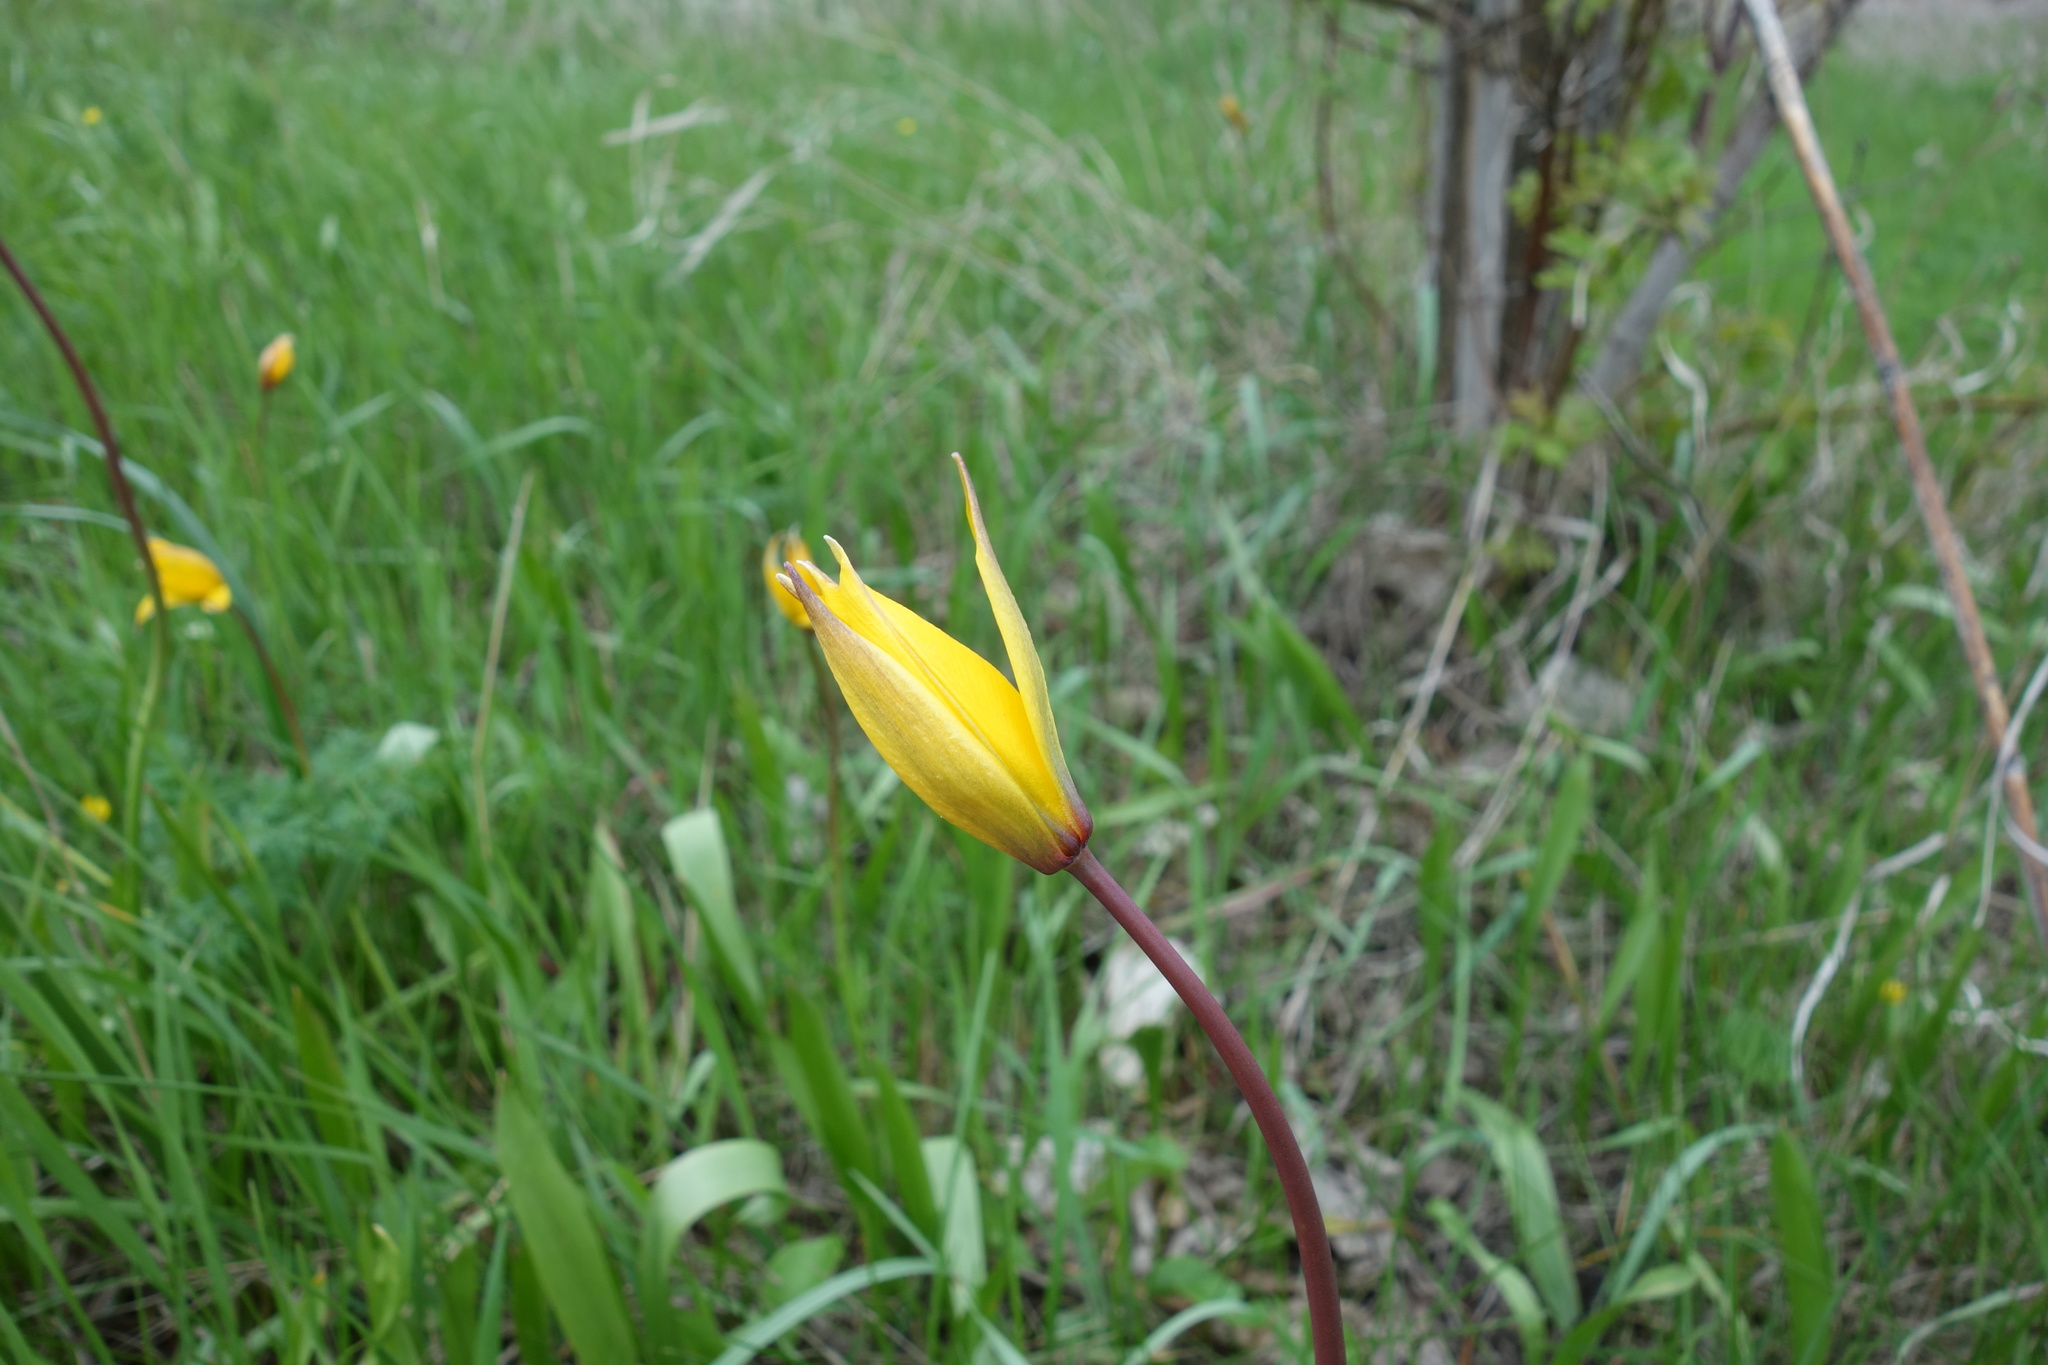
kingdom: Plantae
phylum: Tracheophyta
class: Liliopsida
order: Liliales
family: Liliaceae
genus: Tulipa
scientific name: Tulipa sylvestris
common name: Wild tulip
